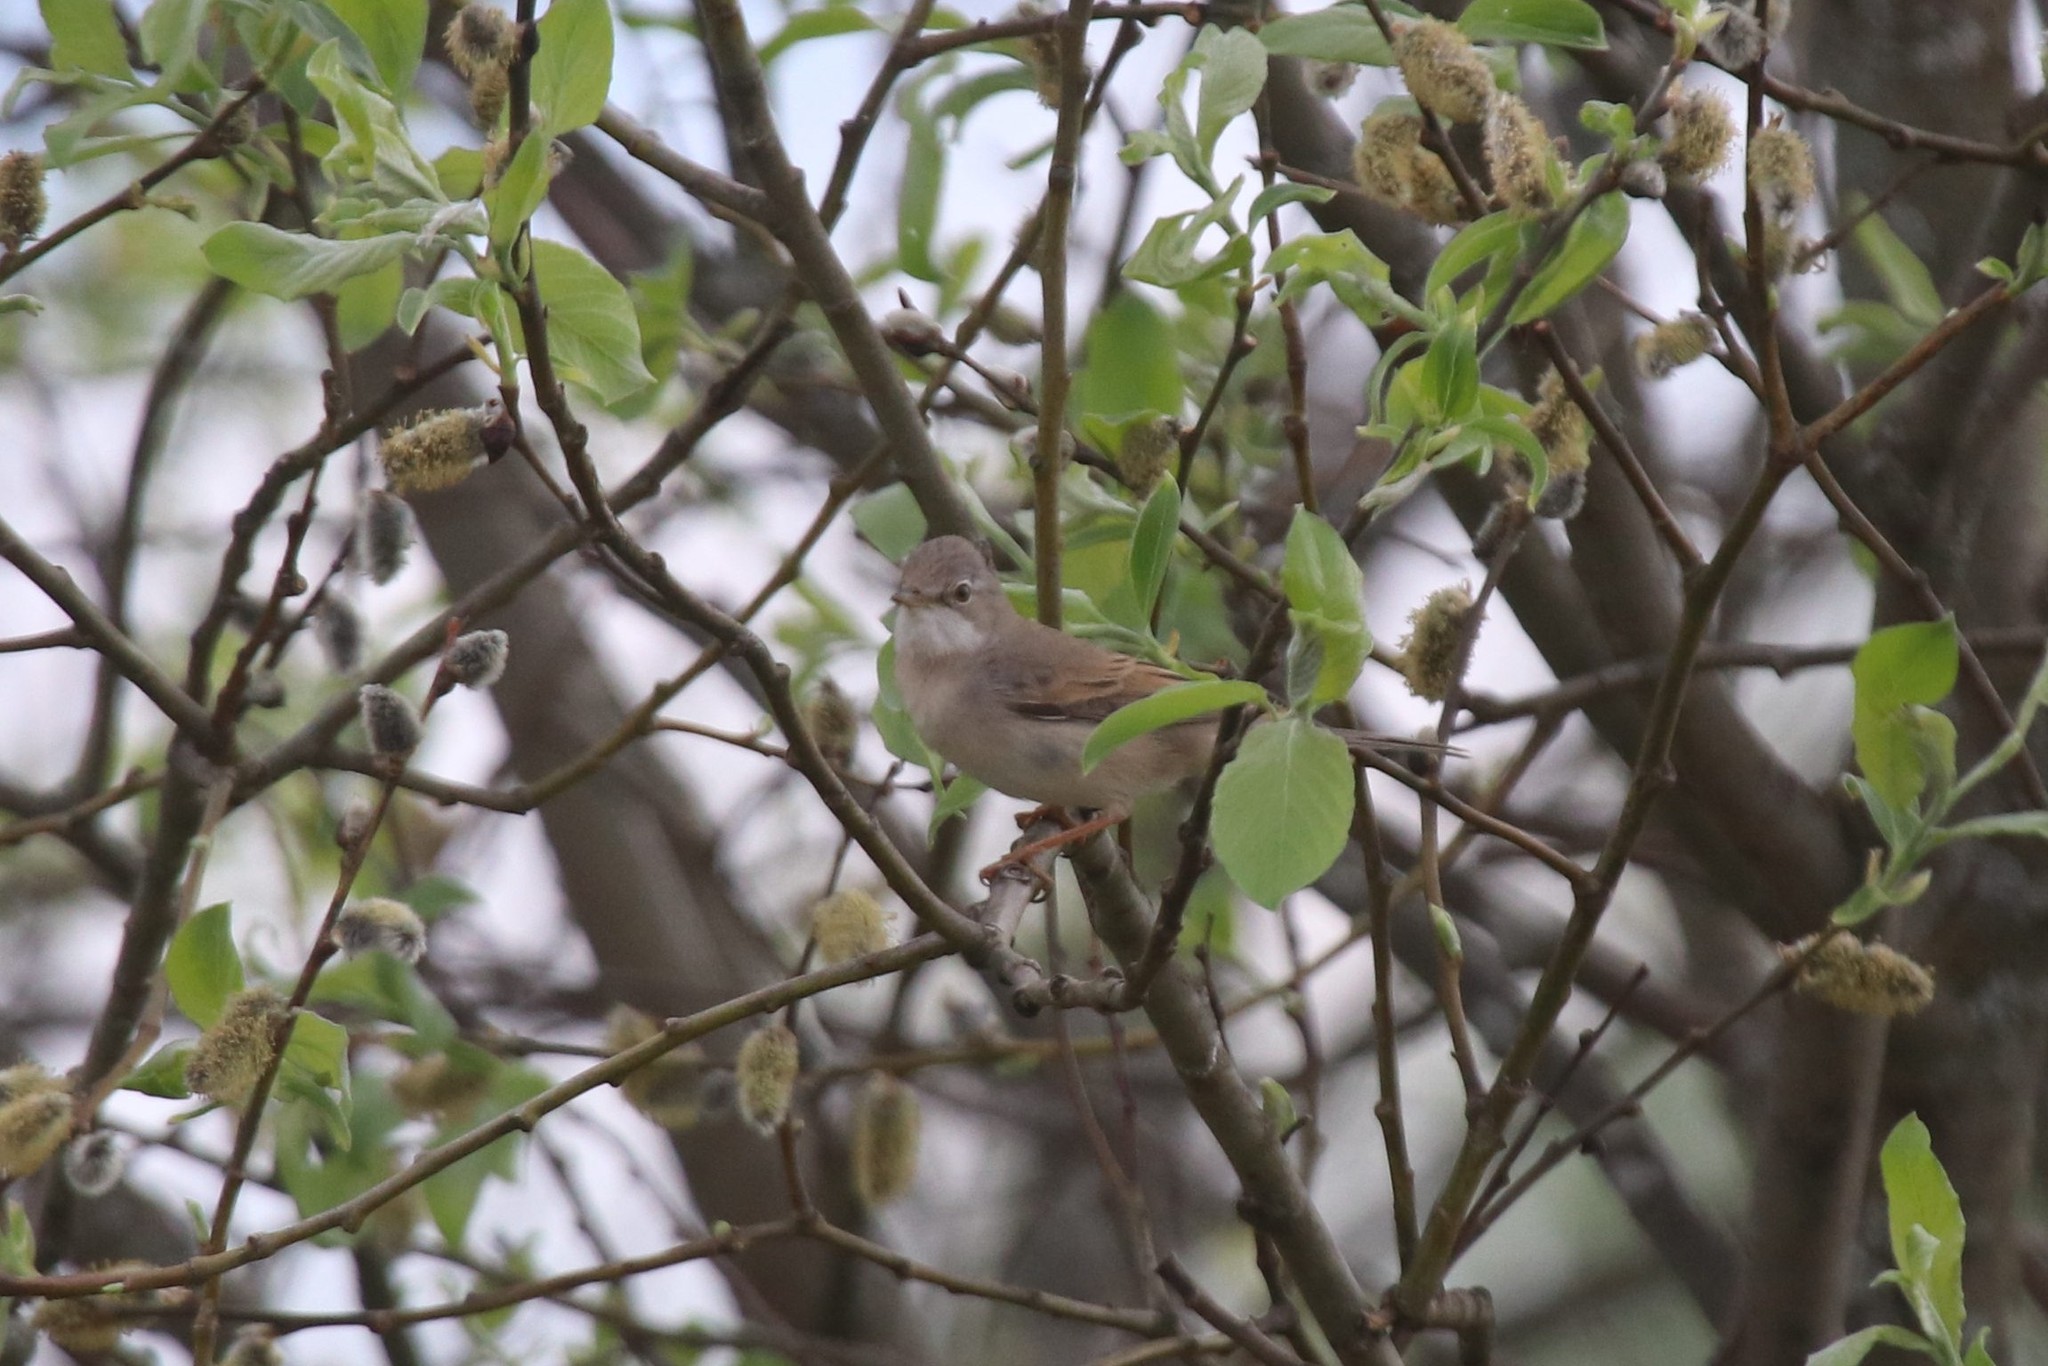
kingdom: Animalia
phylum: Chordata
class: Aves
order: Passeriformes
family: Sylviidae
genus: Sylvia
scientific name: Sylvia communis
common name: Common whitethroat
